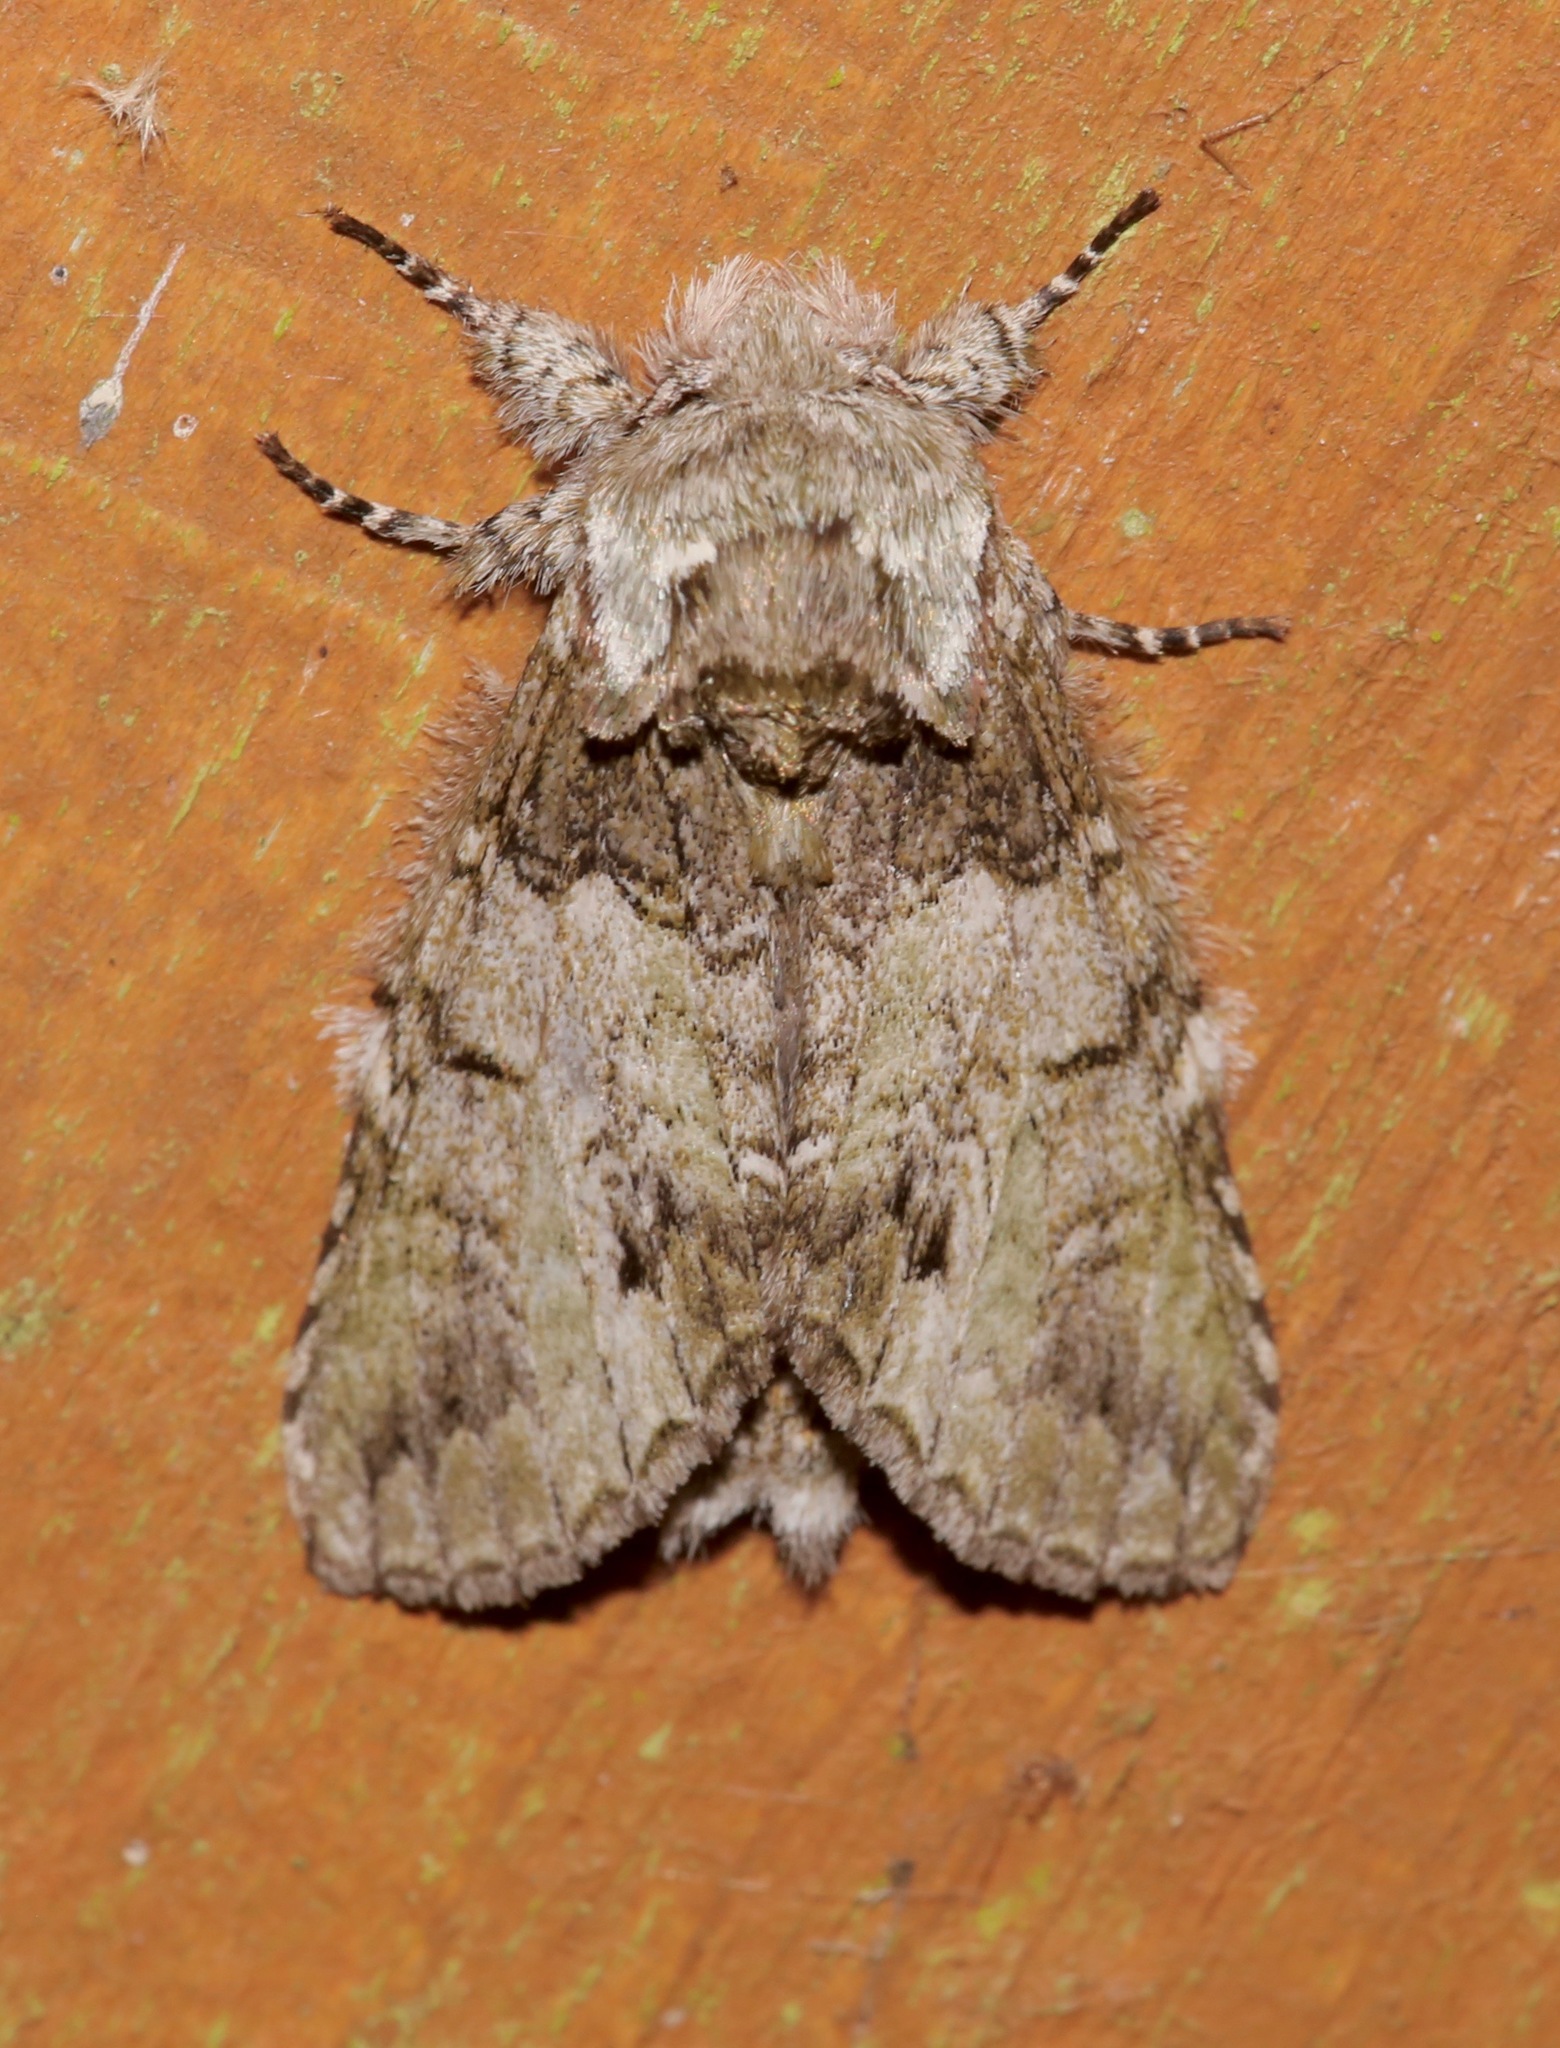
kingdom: Animalia
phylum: Arthropoda
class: Insecta
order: Lepidoptera
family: Notodontidae
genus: Macrurocampa
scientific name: Macrurocampa marthesia
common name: Mottled prominent
